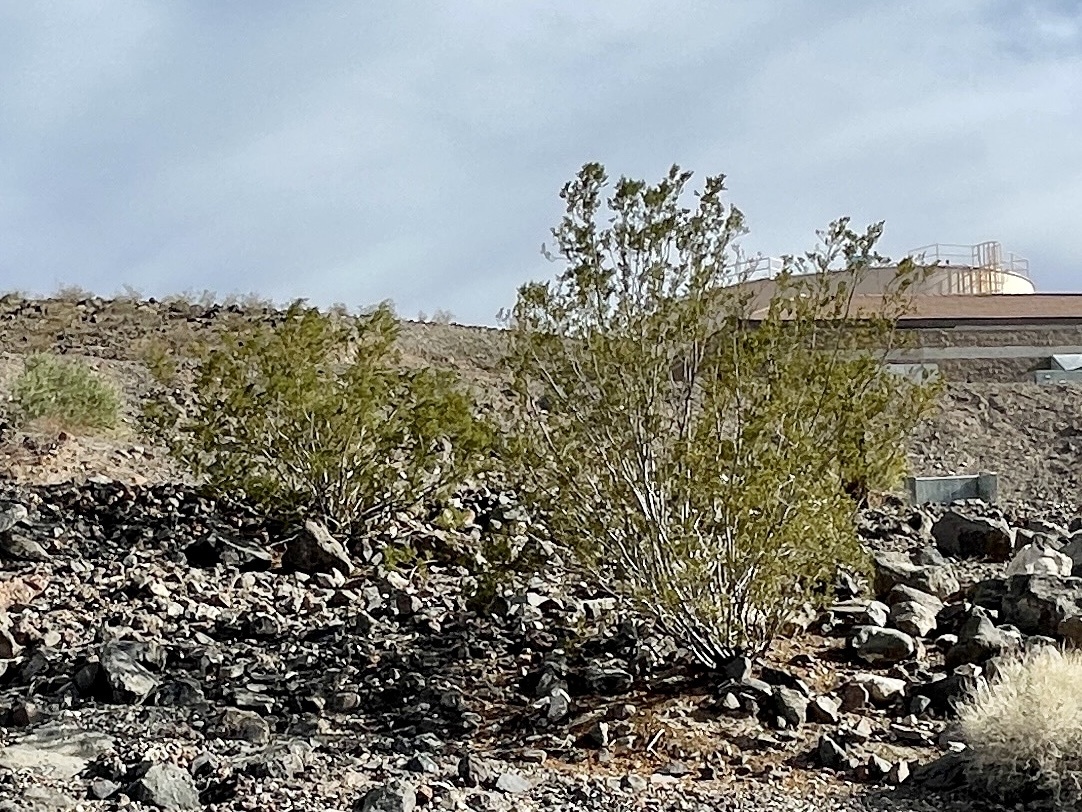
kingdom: Plantae
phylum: Tracheophyta
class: Magnoliopsida
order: Zygophyllales
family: Zygophyllaceae
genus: Larrea
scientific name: Larrea tridentata
